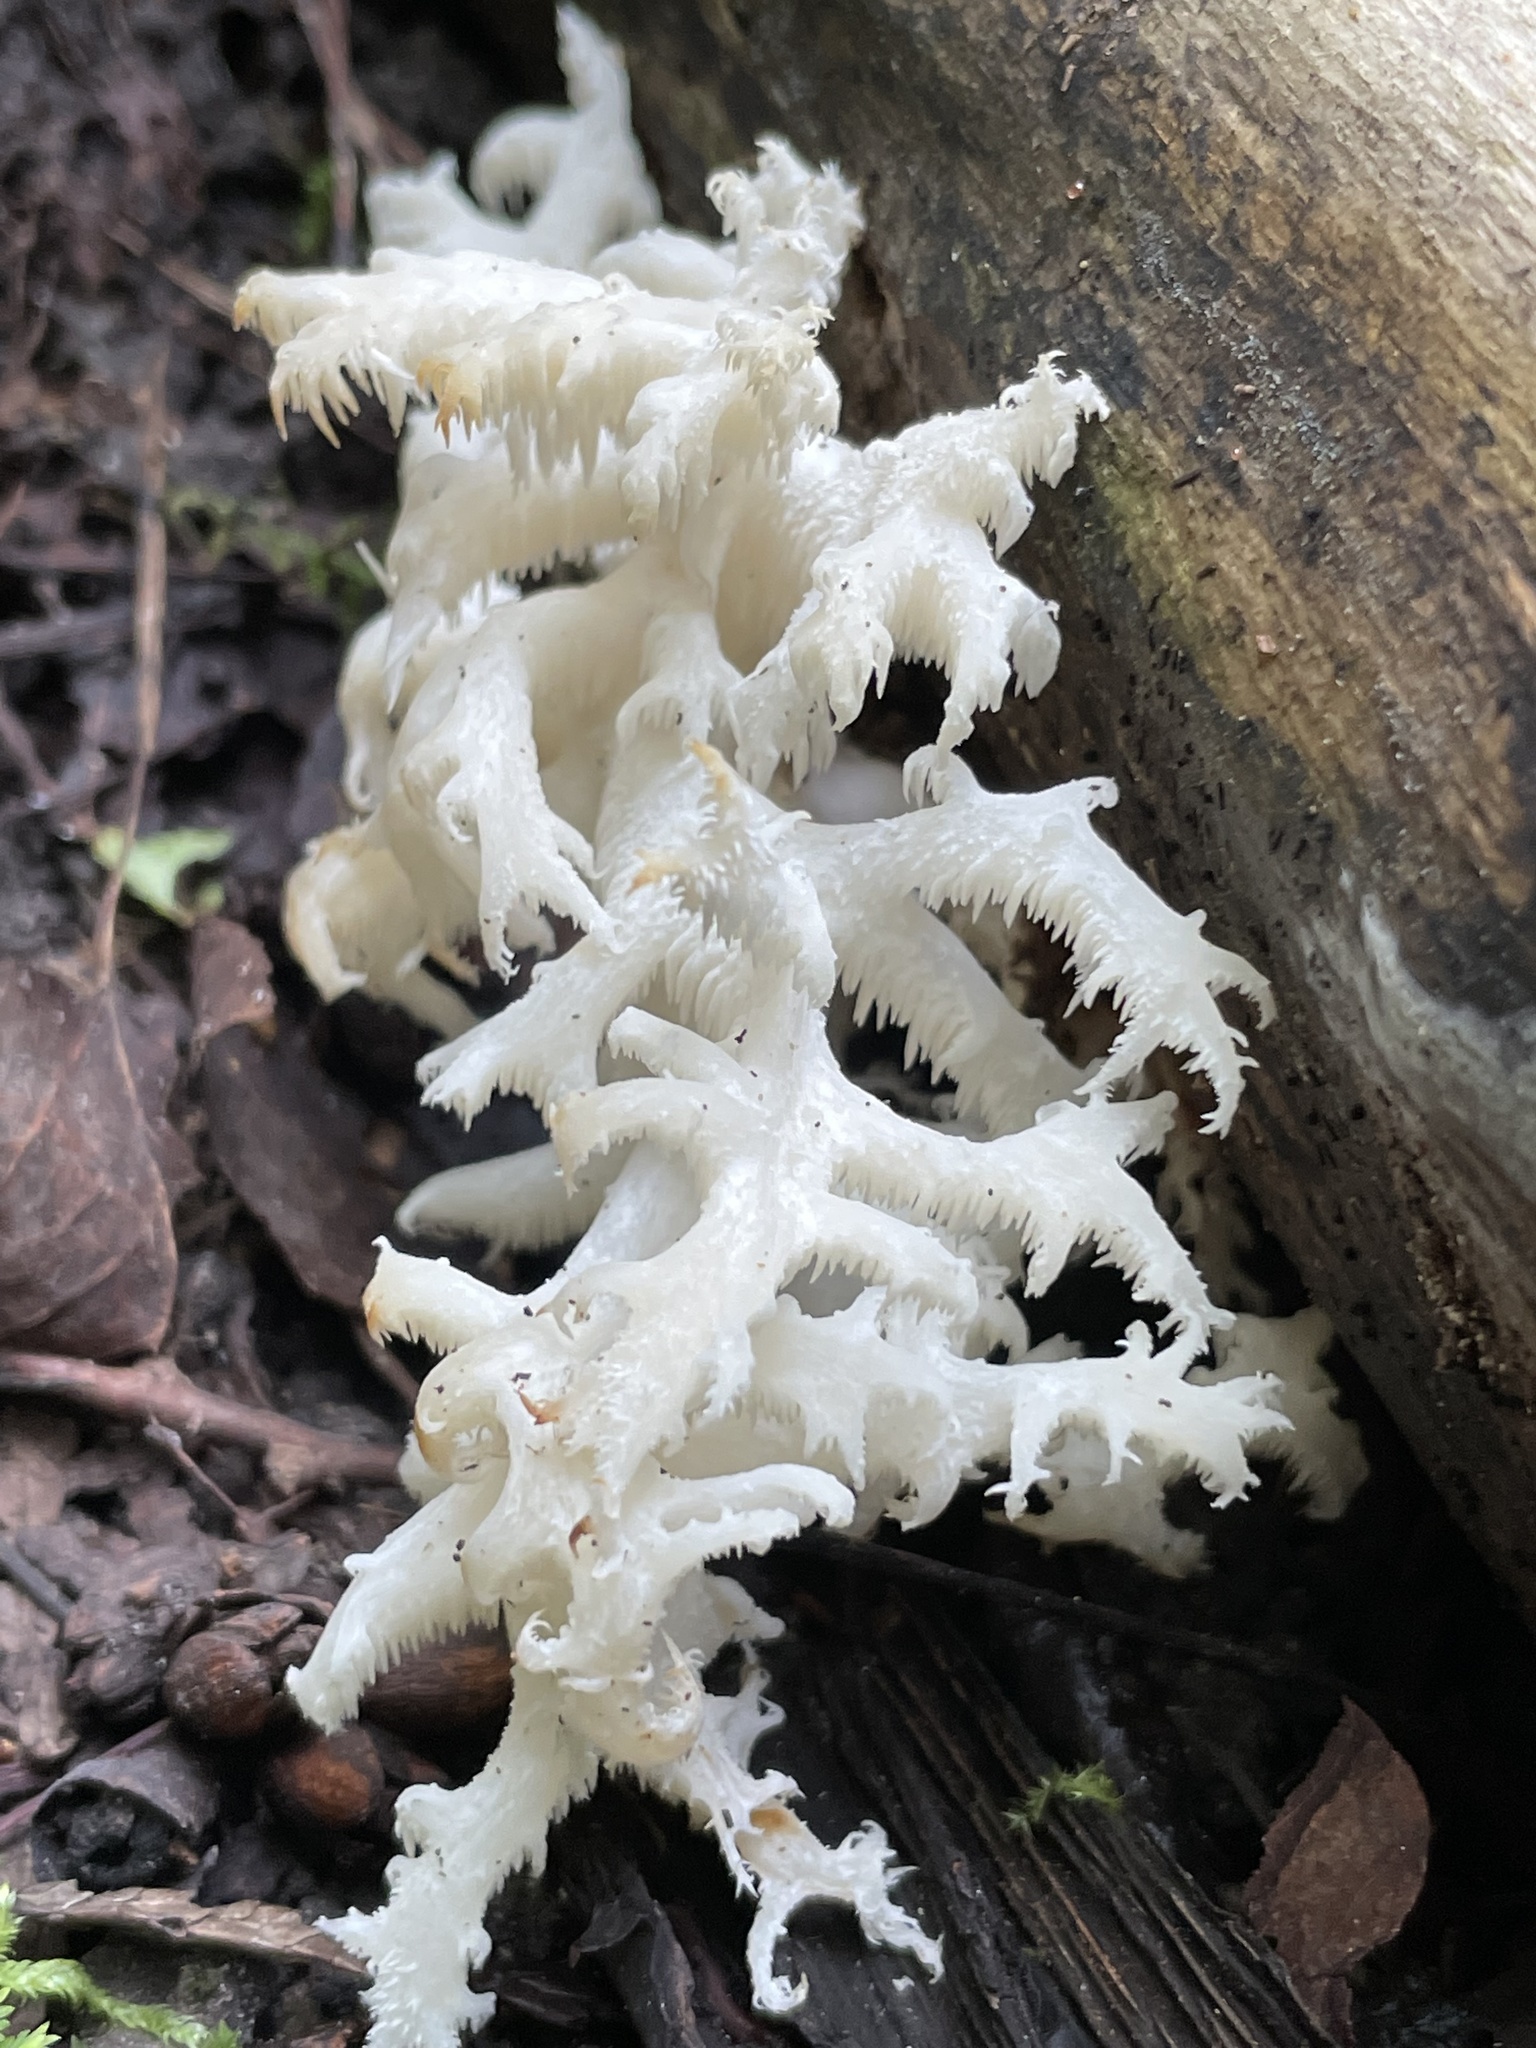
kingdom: Fungi
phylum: Basidiomycota
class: Agaricomycetes
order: Russulales
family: Hericiaceae
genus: Hericium
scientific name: Hericium coralloides
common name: Coral tooth
